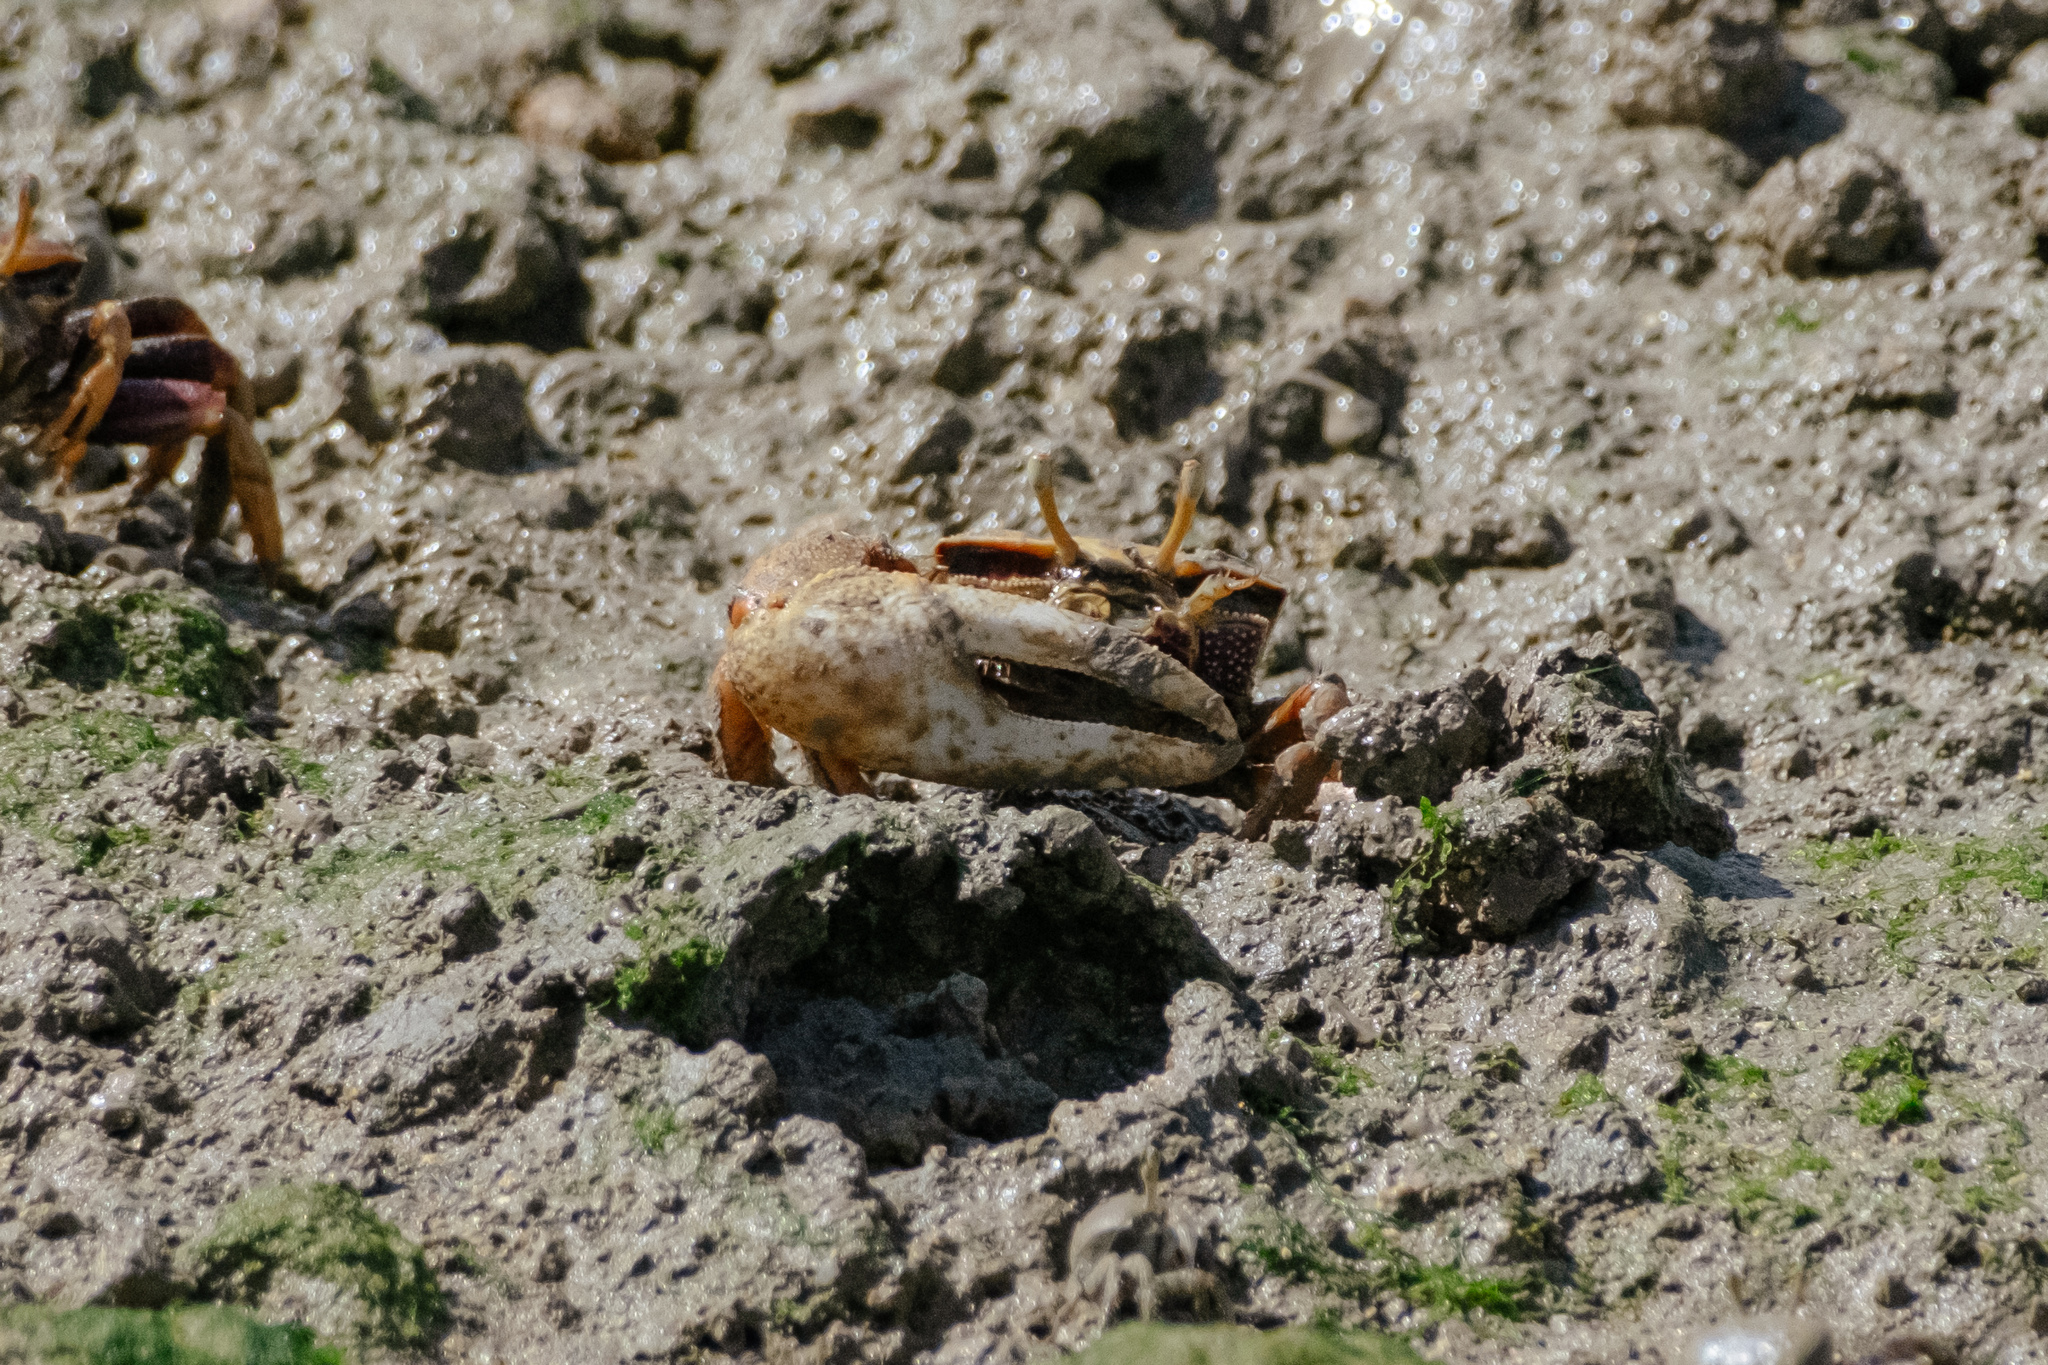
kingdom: Animalia
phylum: Arthropoda
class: Malacostraca
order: Decapoda
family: Ocypodidae
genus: Afruca
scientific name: Afruca tangeri
